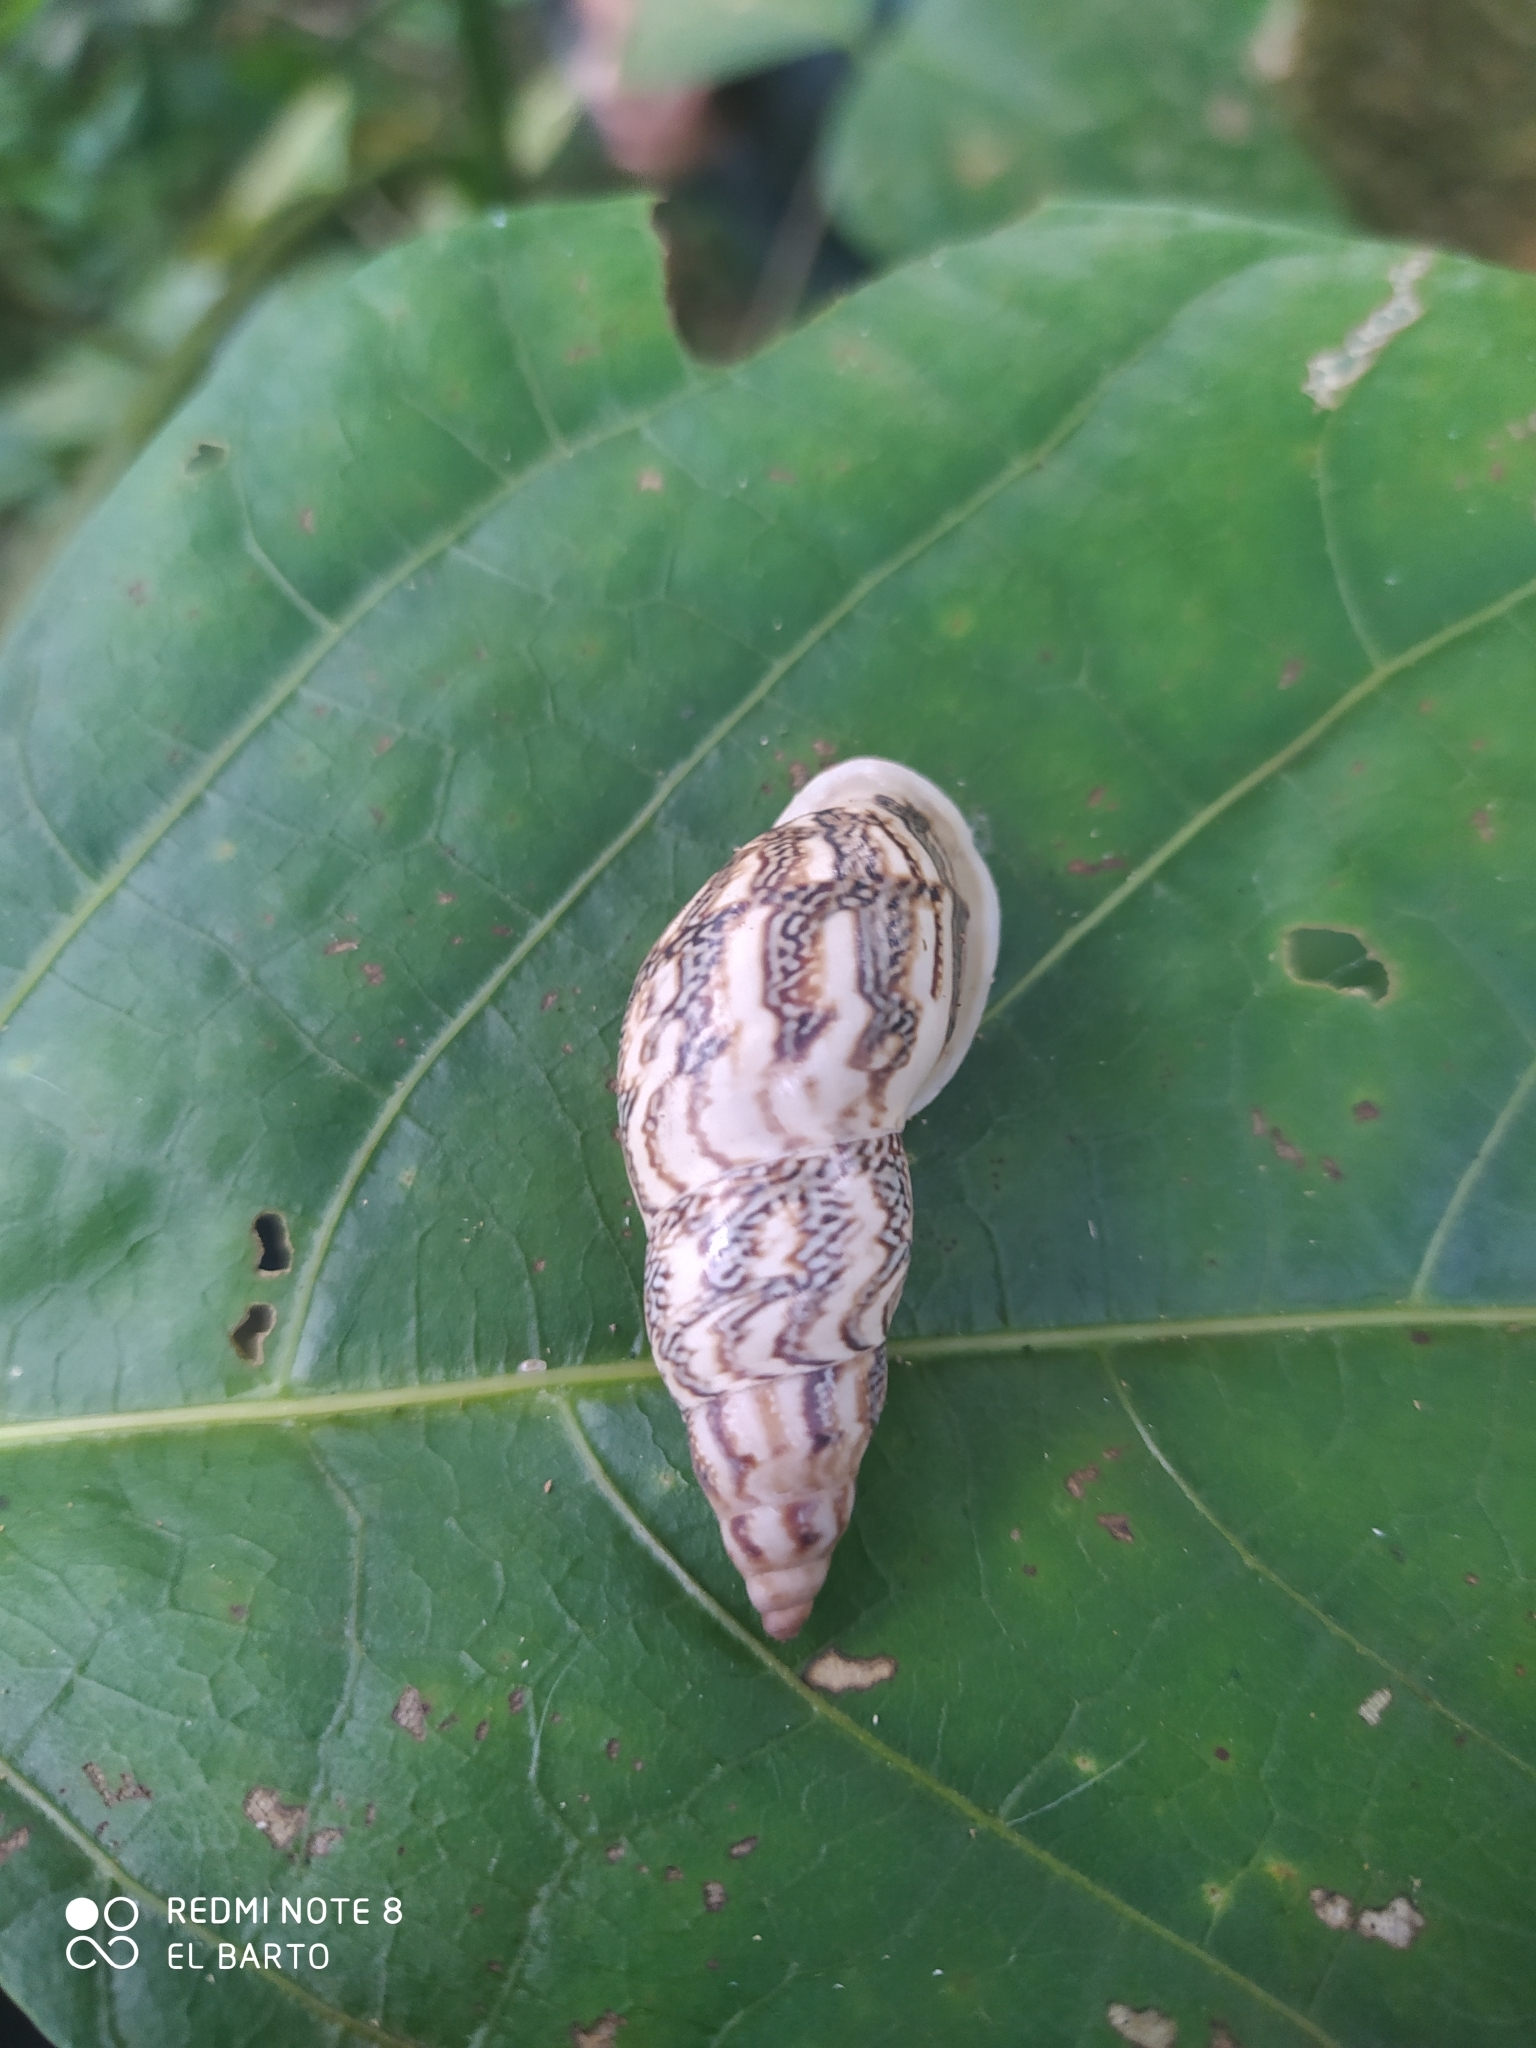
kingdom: Animalia
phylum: Mollusca
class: Gastropoda
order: Stylommatophora
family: Bulimulidae
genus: Drymaeus
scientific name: Drymaeus flexuosus
